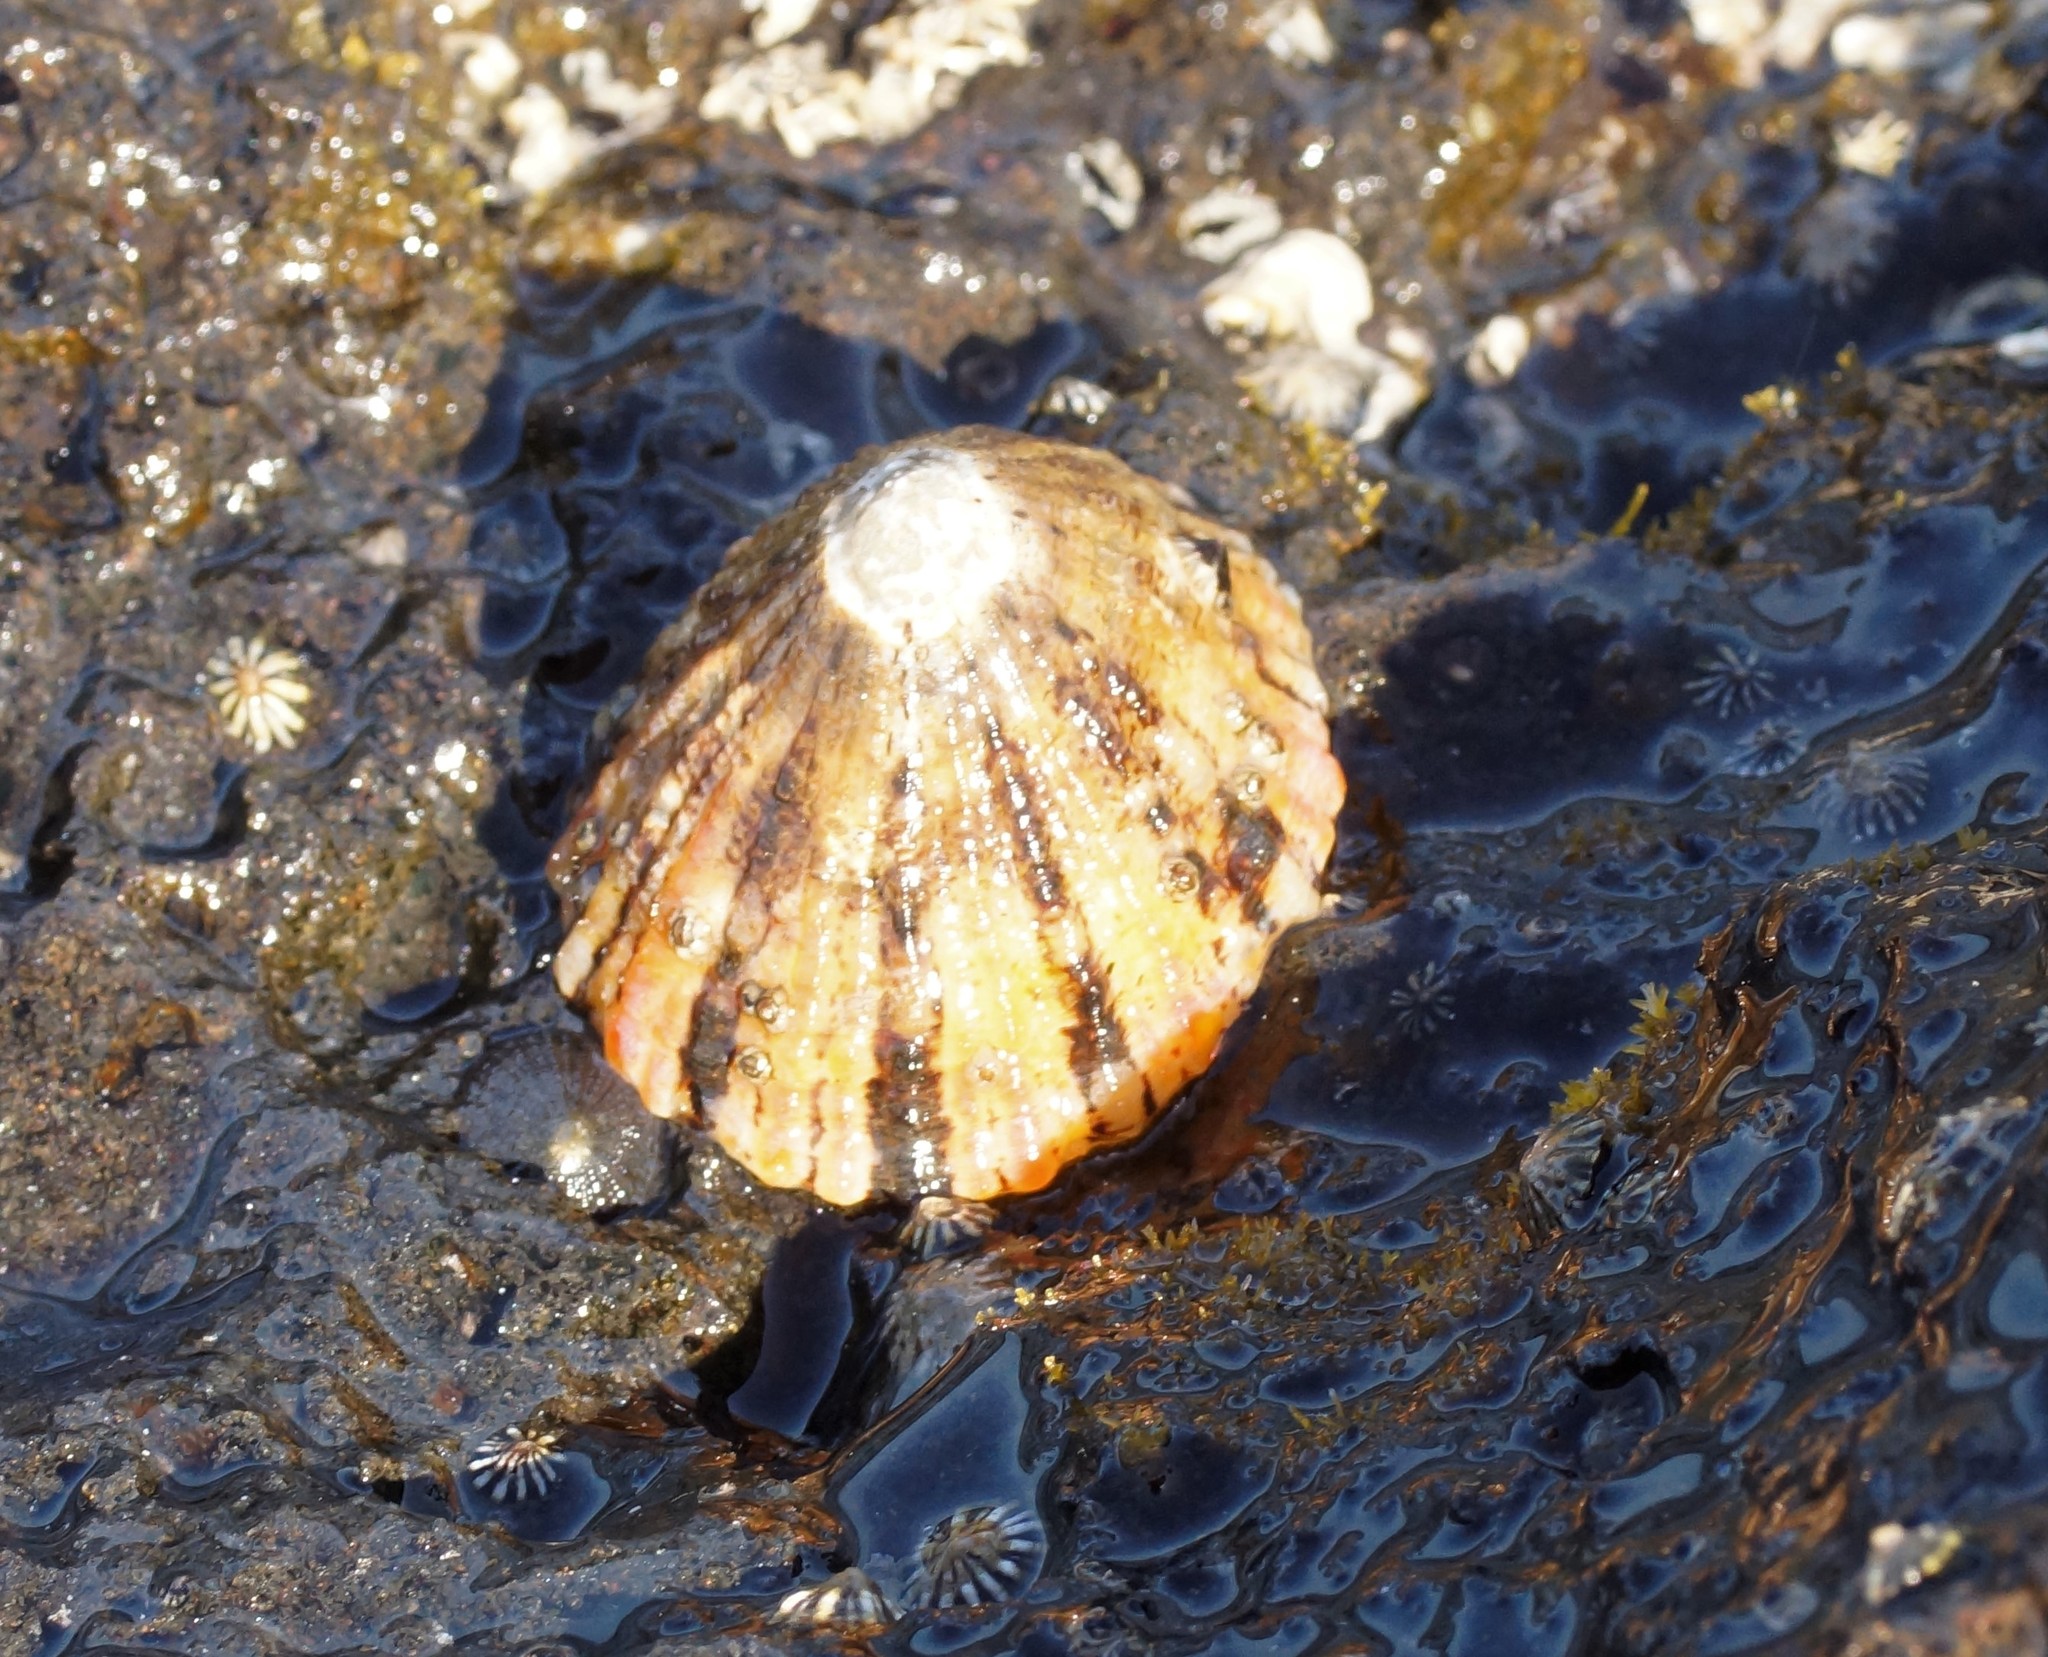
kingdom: Animalia
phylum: Mollusca
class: Gastropoda
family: Nacellidae
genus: Cellana
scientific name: Cellana tramoserica
